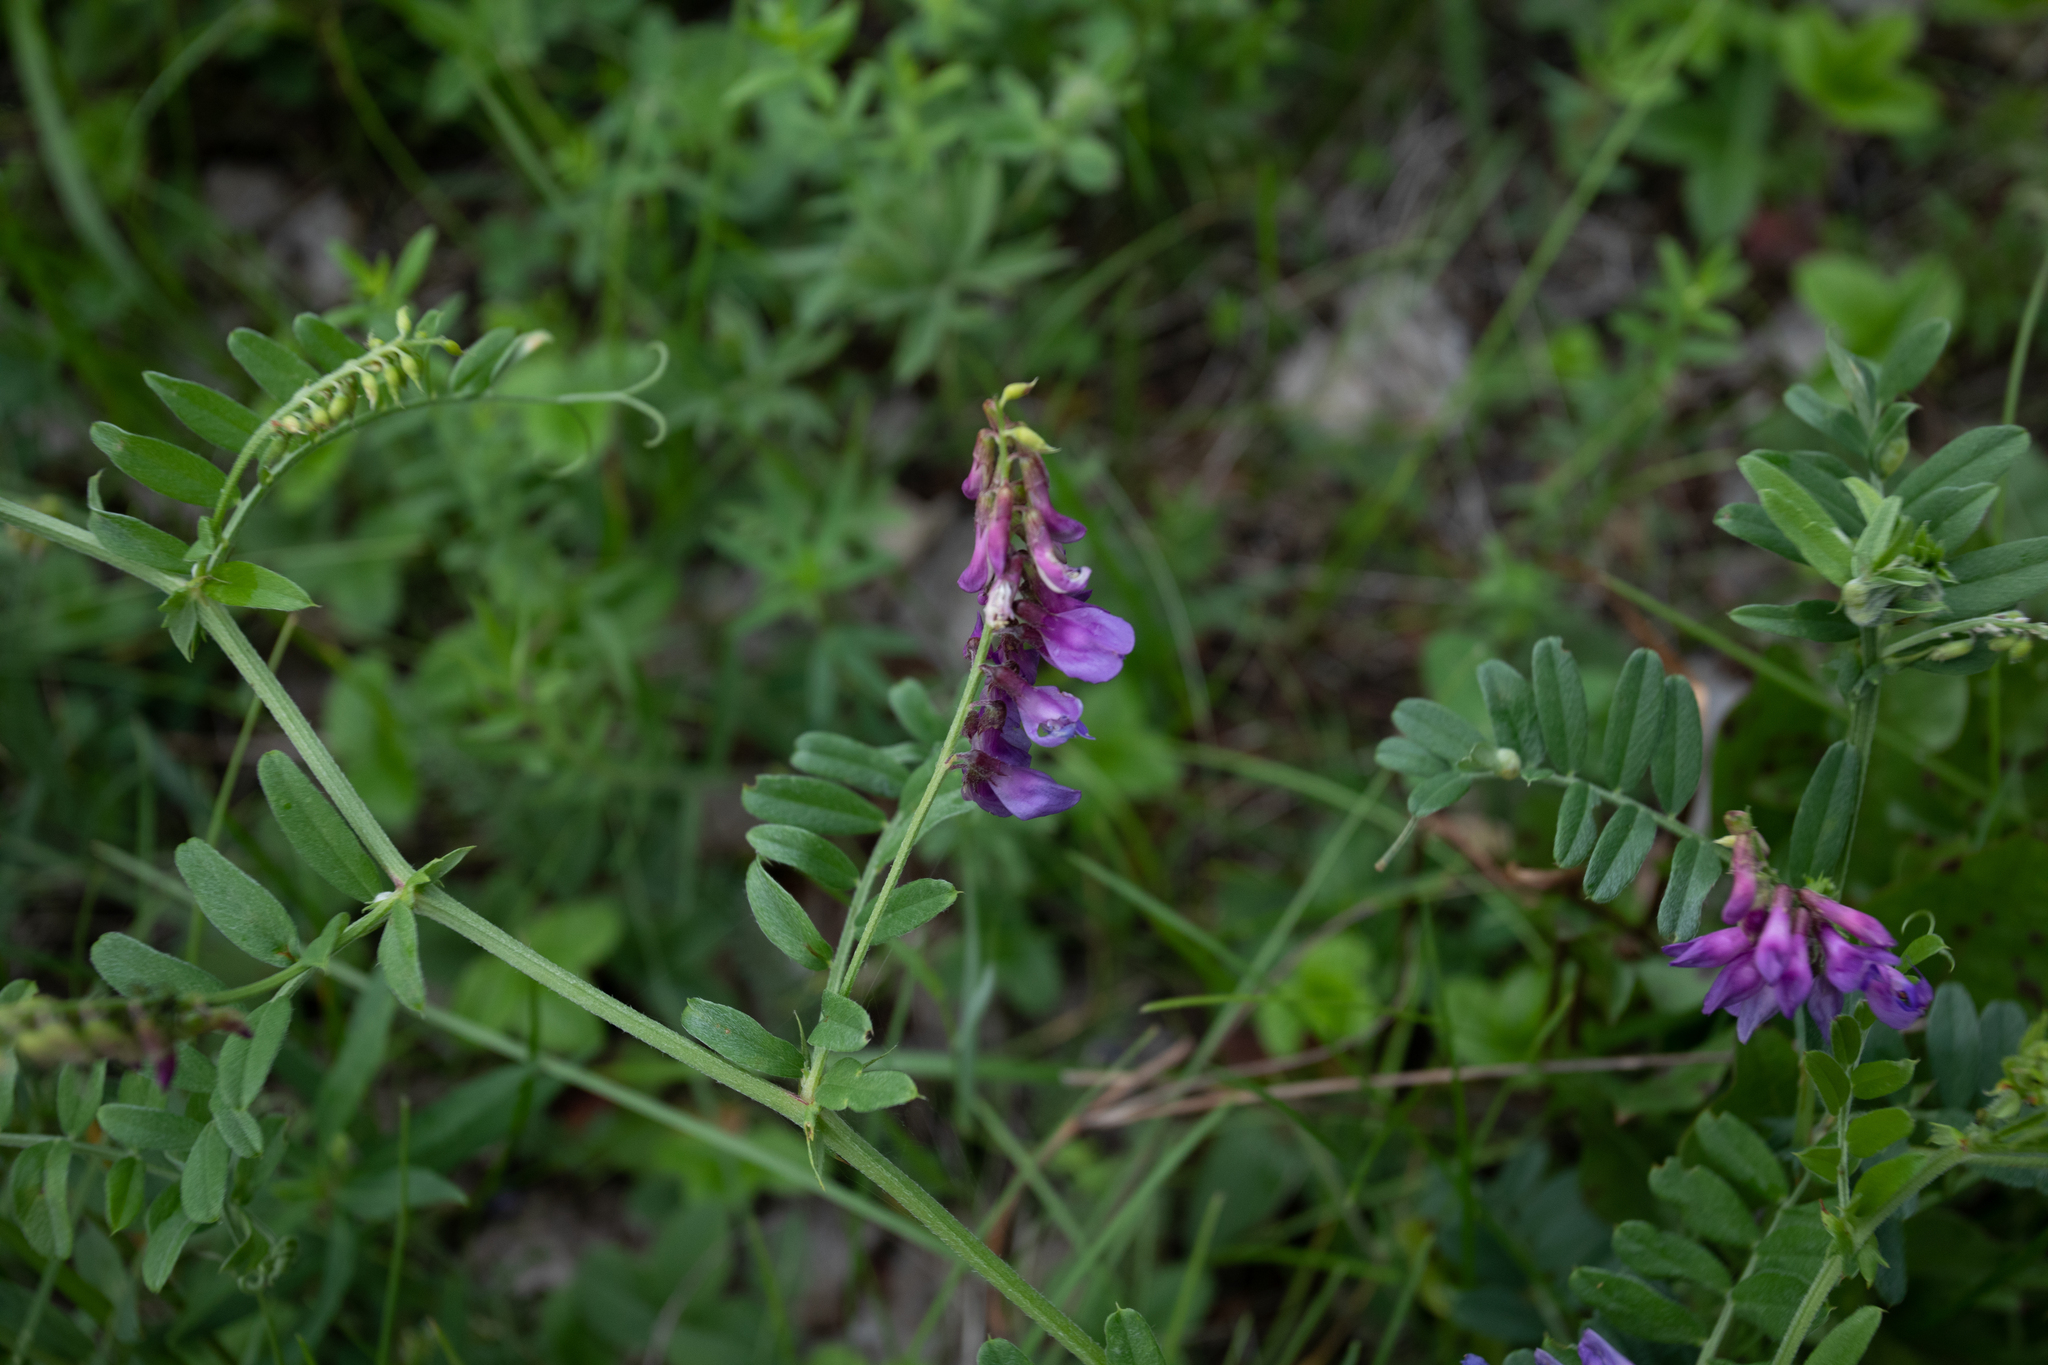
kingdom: Plantae
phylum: Tracheophyta
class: Magnoliopsida
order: Fabales
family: Fabaceae
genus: Vicia
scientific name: Vicia amoena
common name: Cheder ebs
